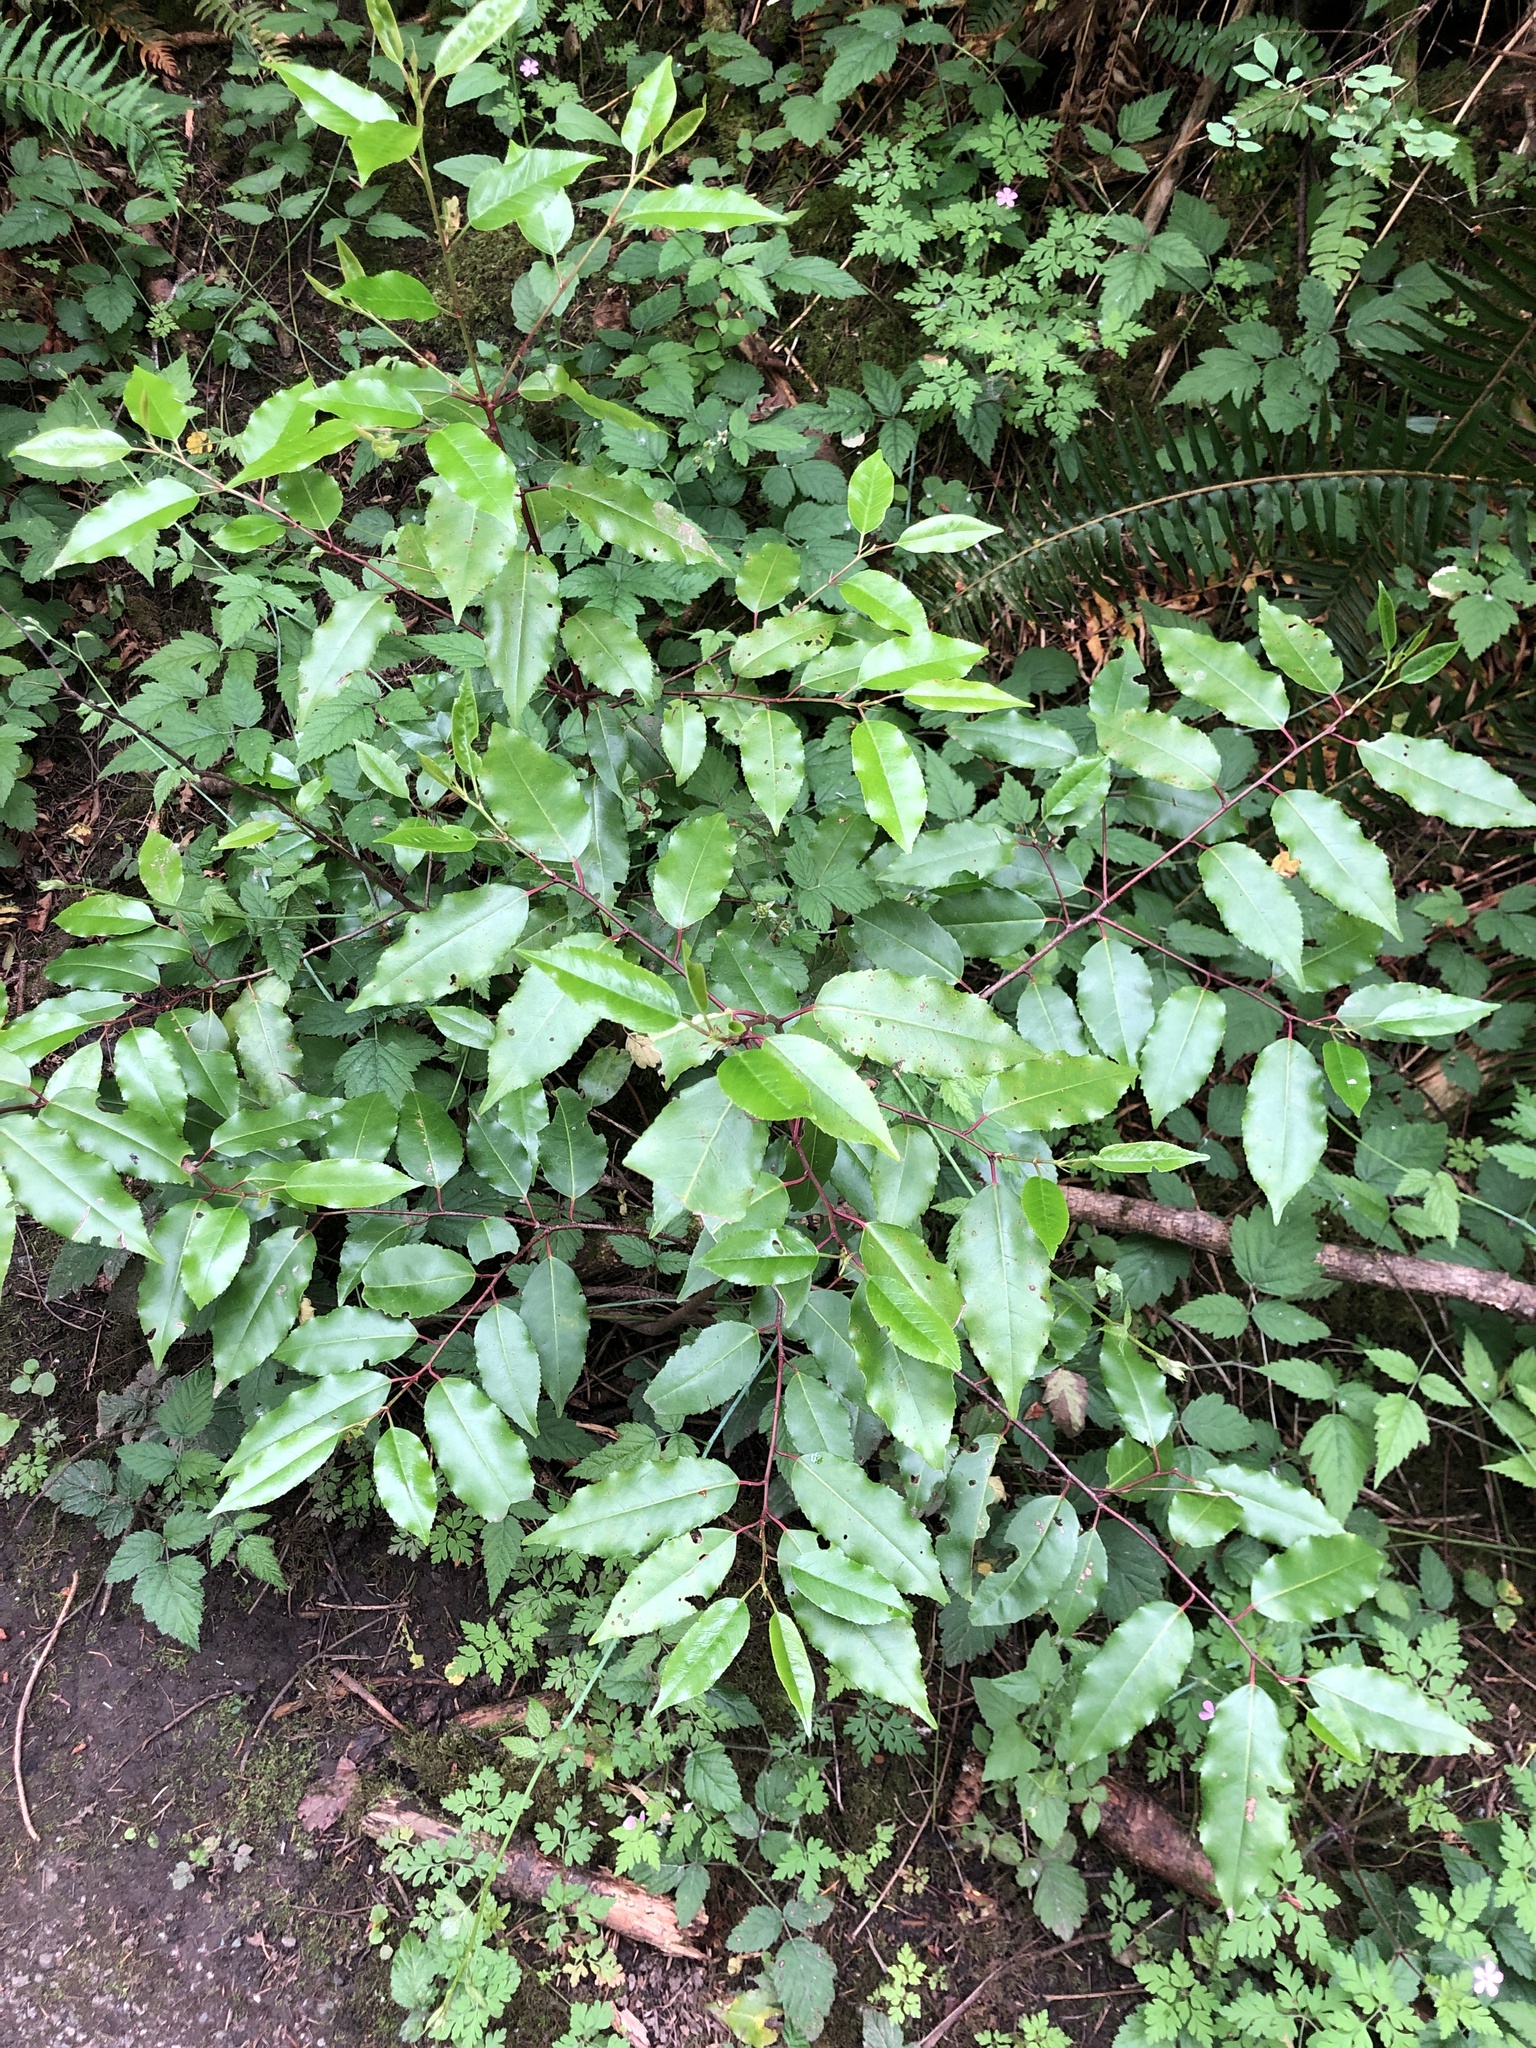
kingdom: Plantae
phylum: Tracheophyta
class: Magnoliopsida
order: Rosales
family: Rosaceae
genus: Prunus
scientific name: Prunus lusitanica
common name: Portugal laurel
